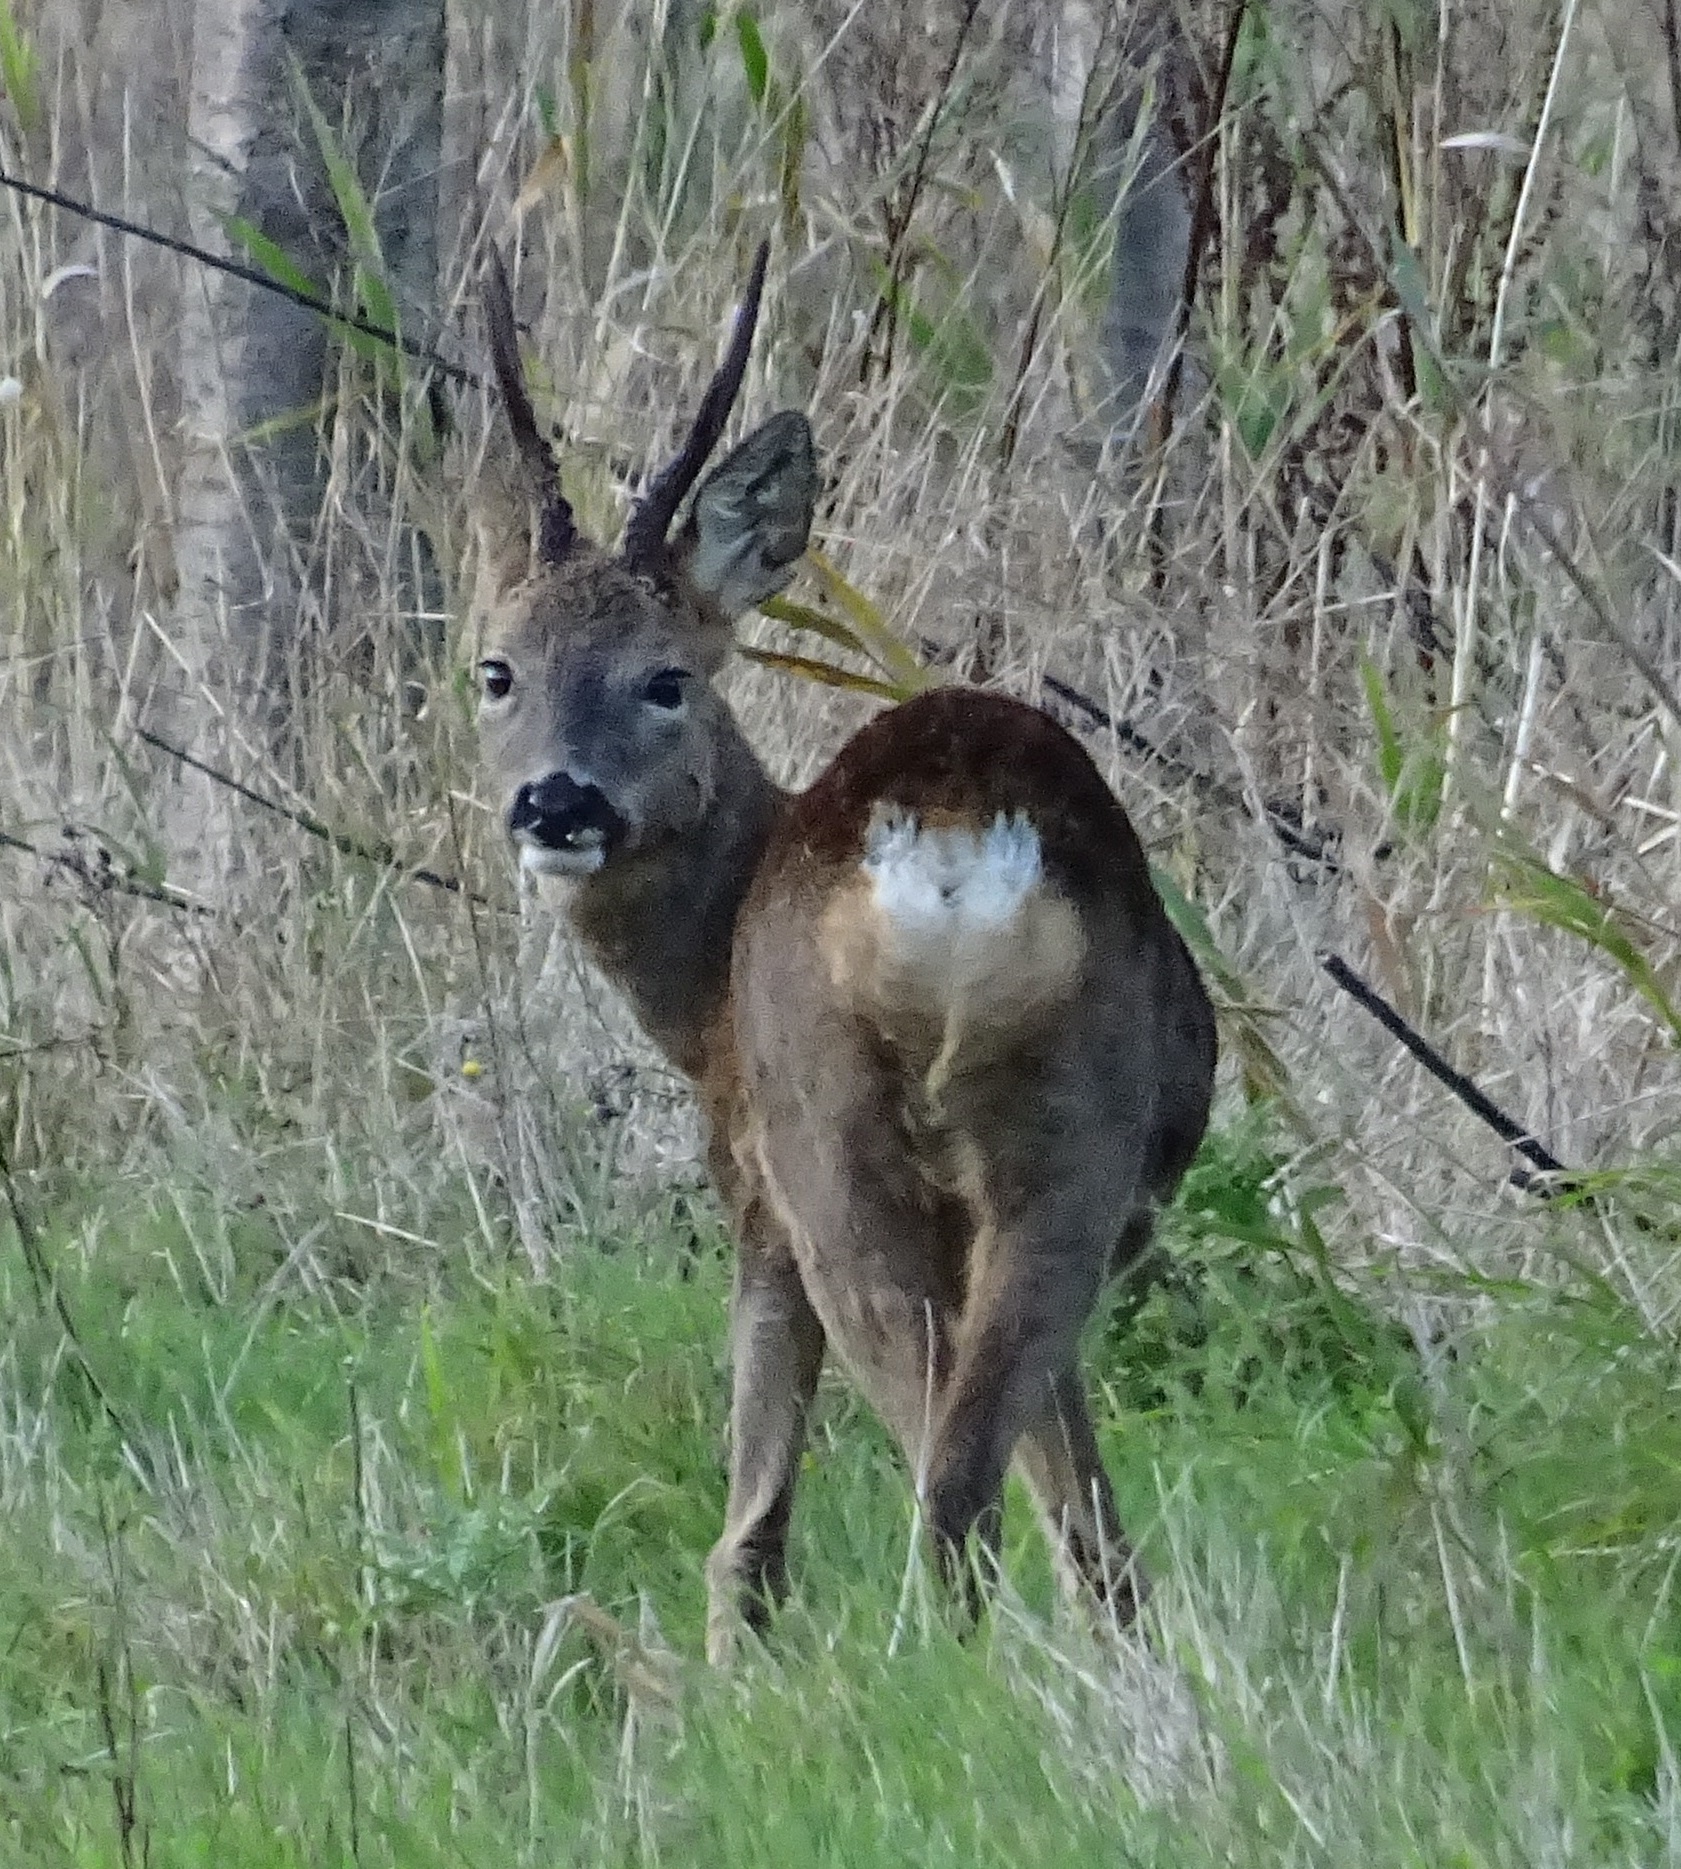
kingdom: Animalia
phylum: Chordata
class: Mammalia
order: Artiodactyla
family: Cervidae
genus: Capreolus
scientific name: Capreolus capreolus
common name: Western roe deer
